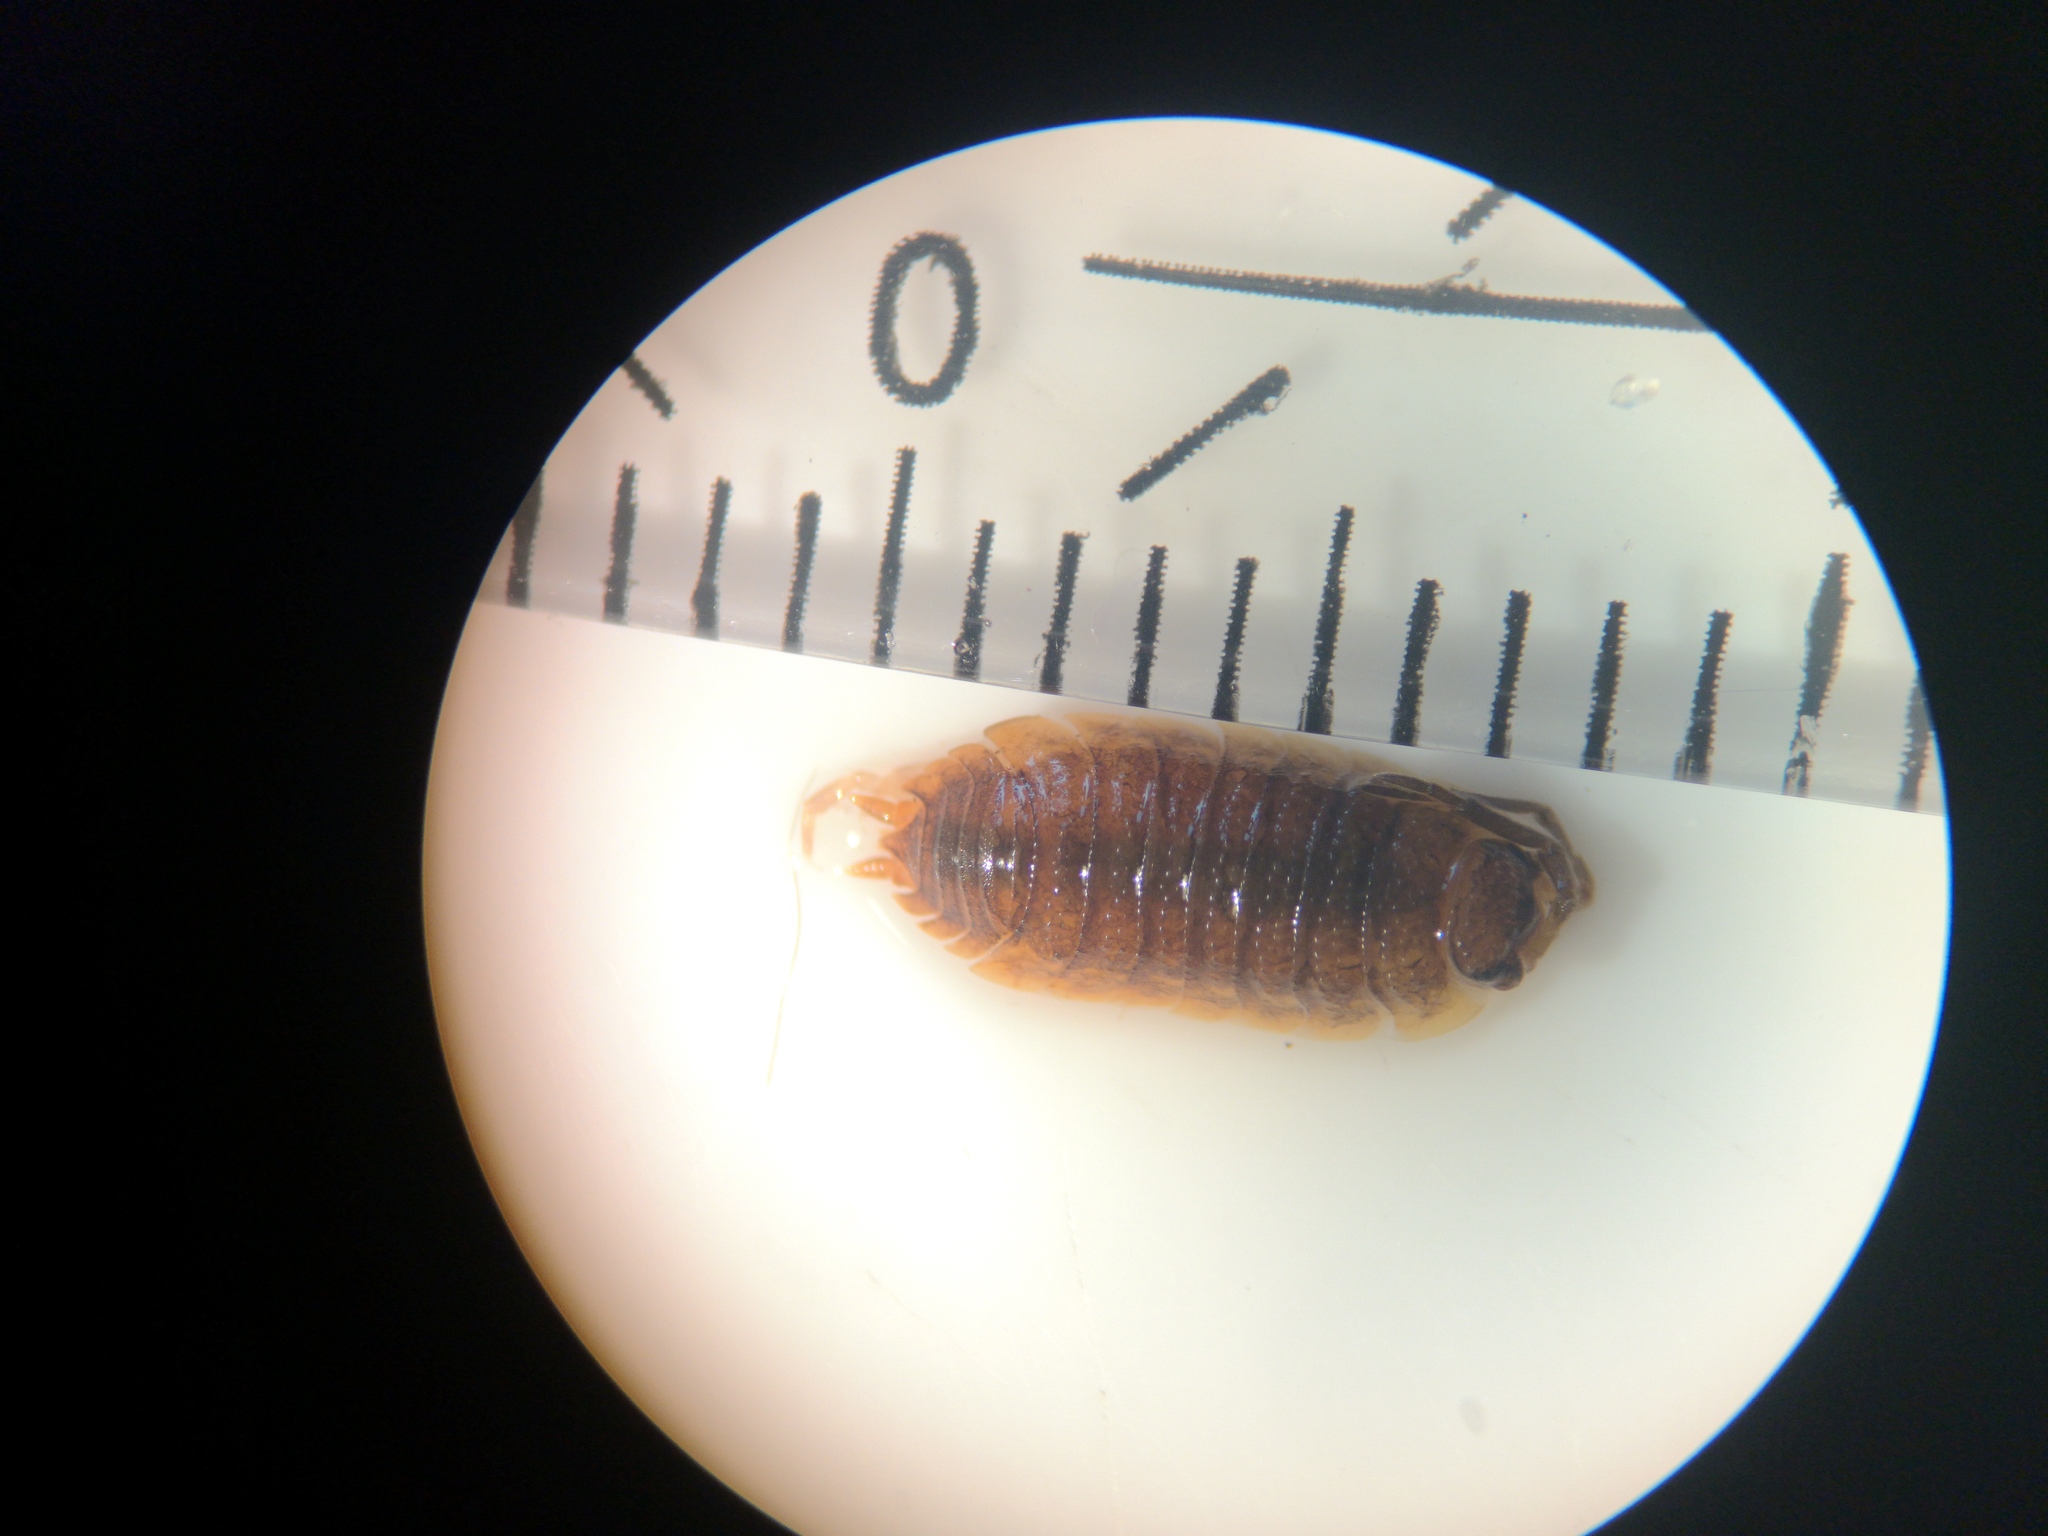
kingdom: Animalia
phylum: Arthropoda
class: Malacostraca
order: Isopoda
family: Porcellionidae
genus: Porcellio
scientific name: Porcellio scaber
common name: Common rough woodlouse
